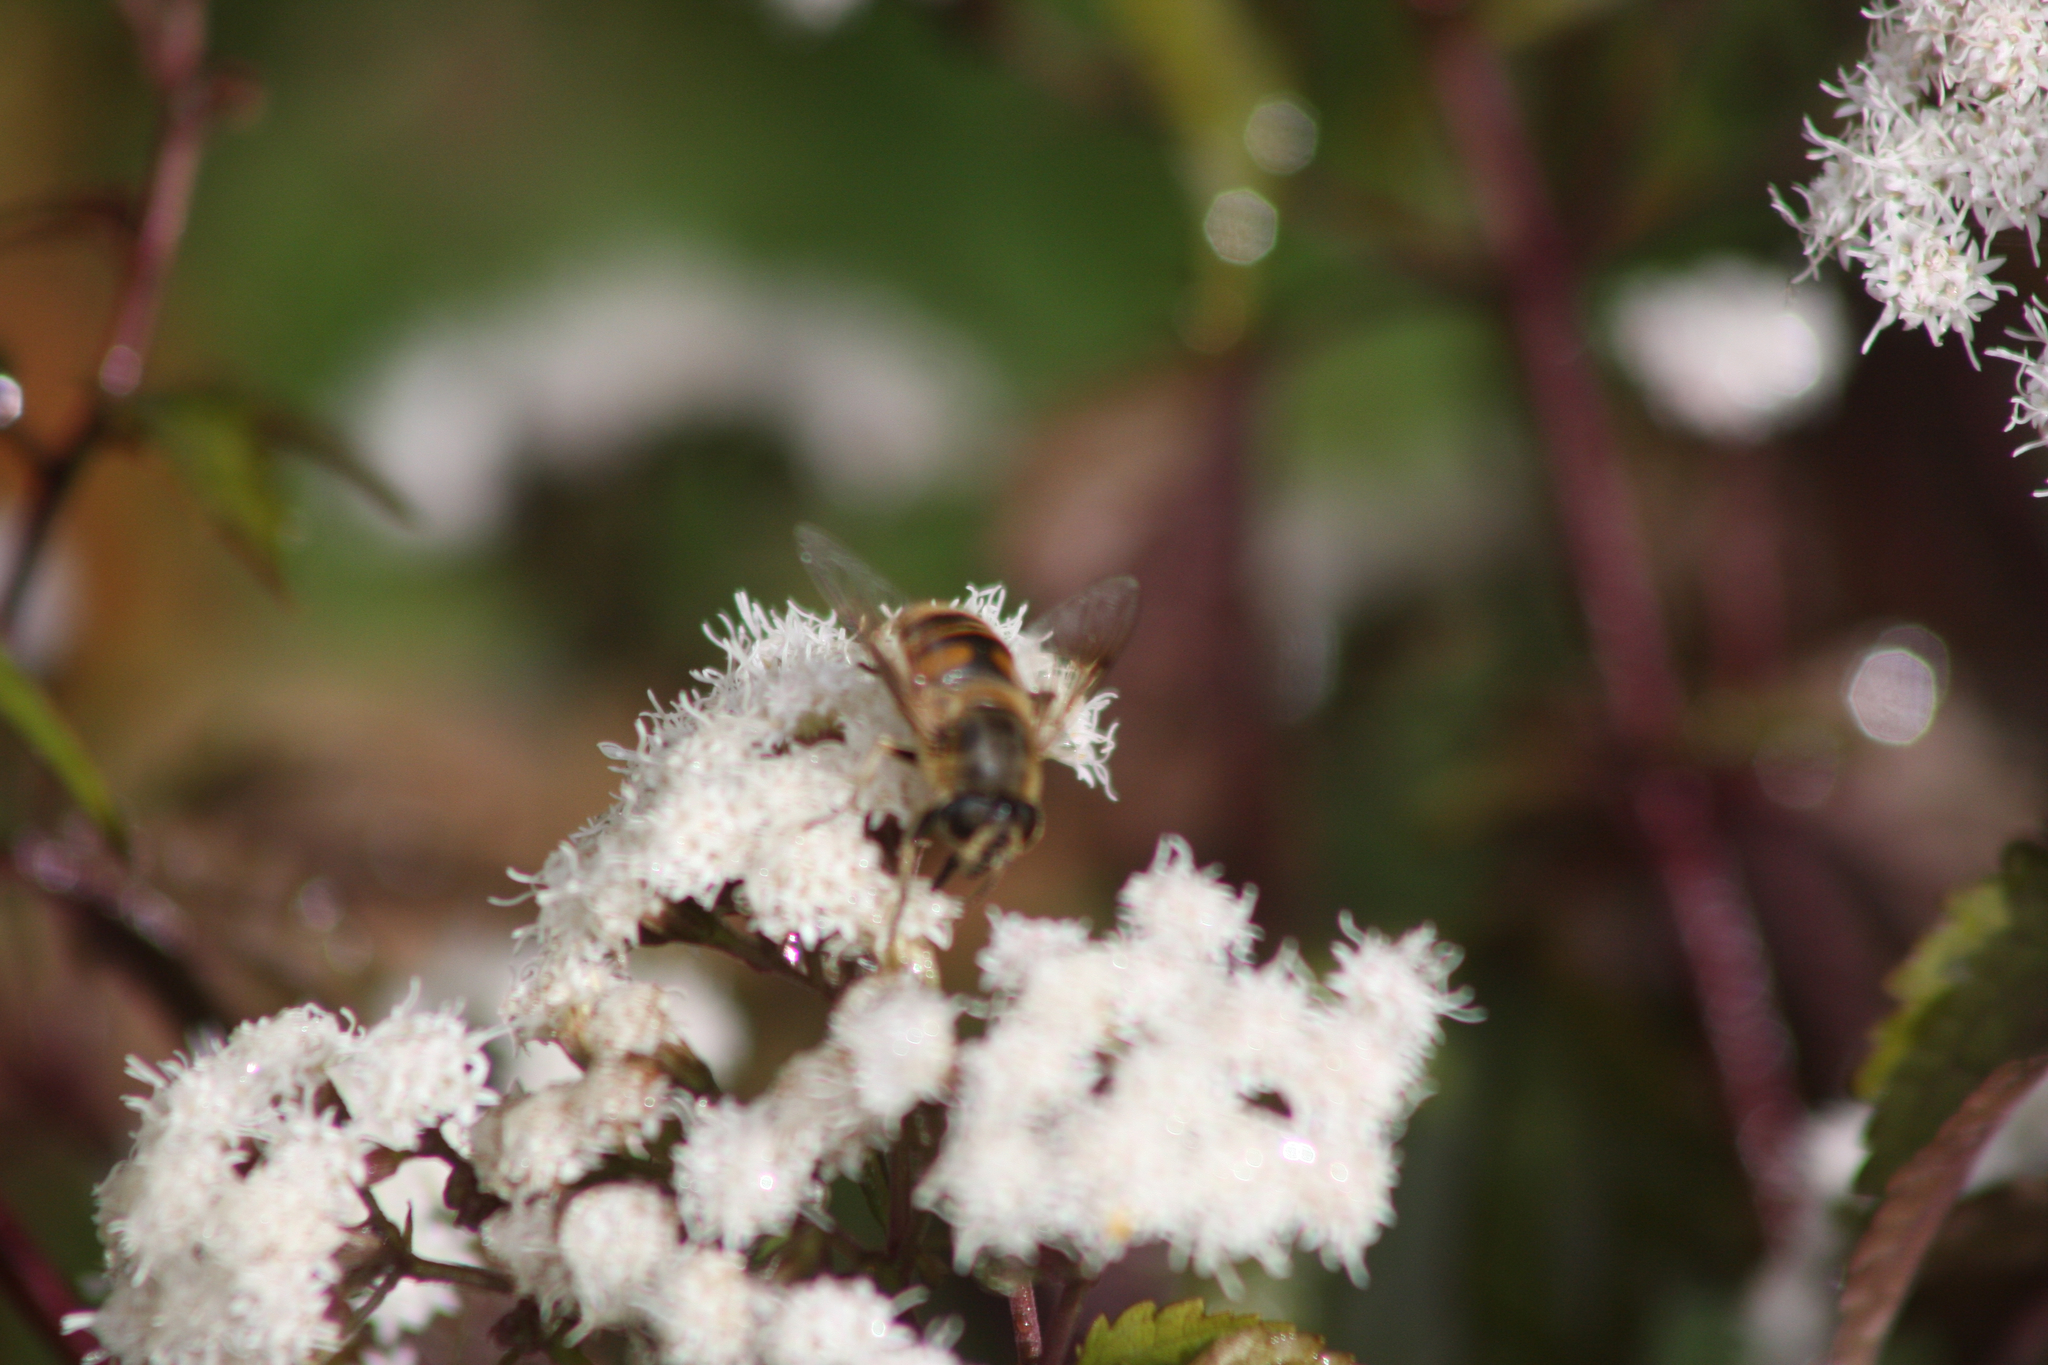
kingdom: Animalia
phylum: Arthropoda
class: Insecta
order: Diptera
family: Syrphidae
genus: Eristalis
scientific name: Eristalis tenax
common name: Drone fly
